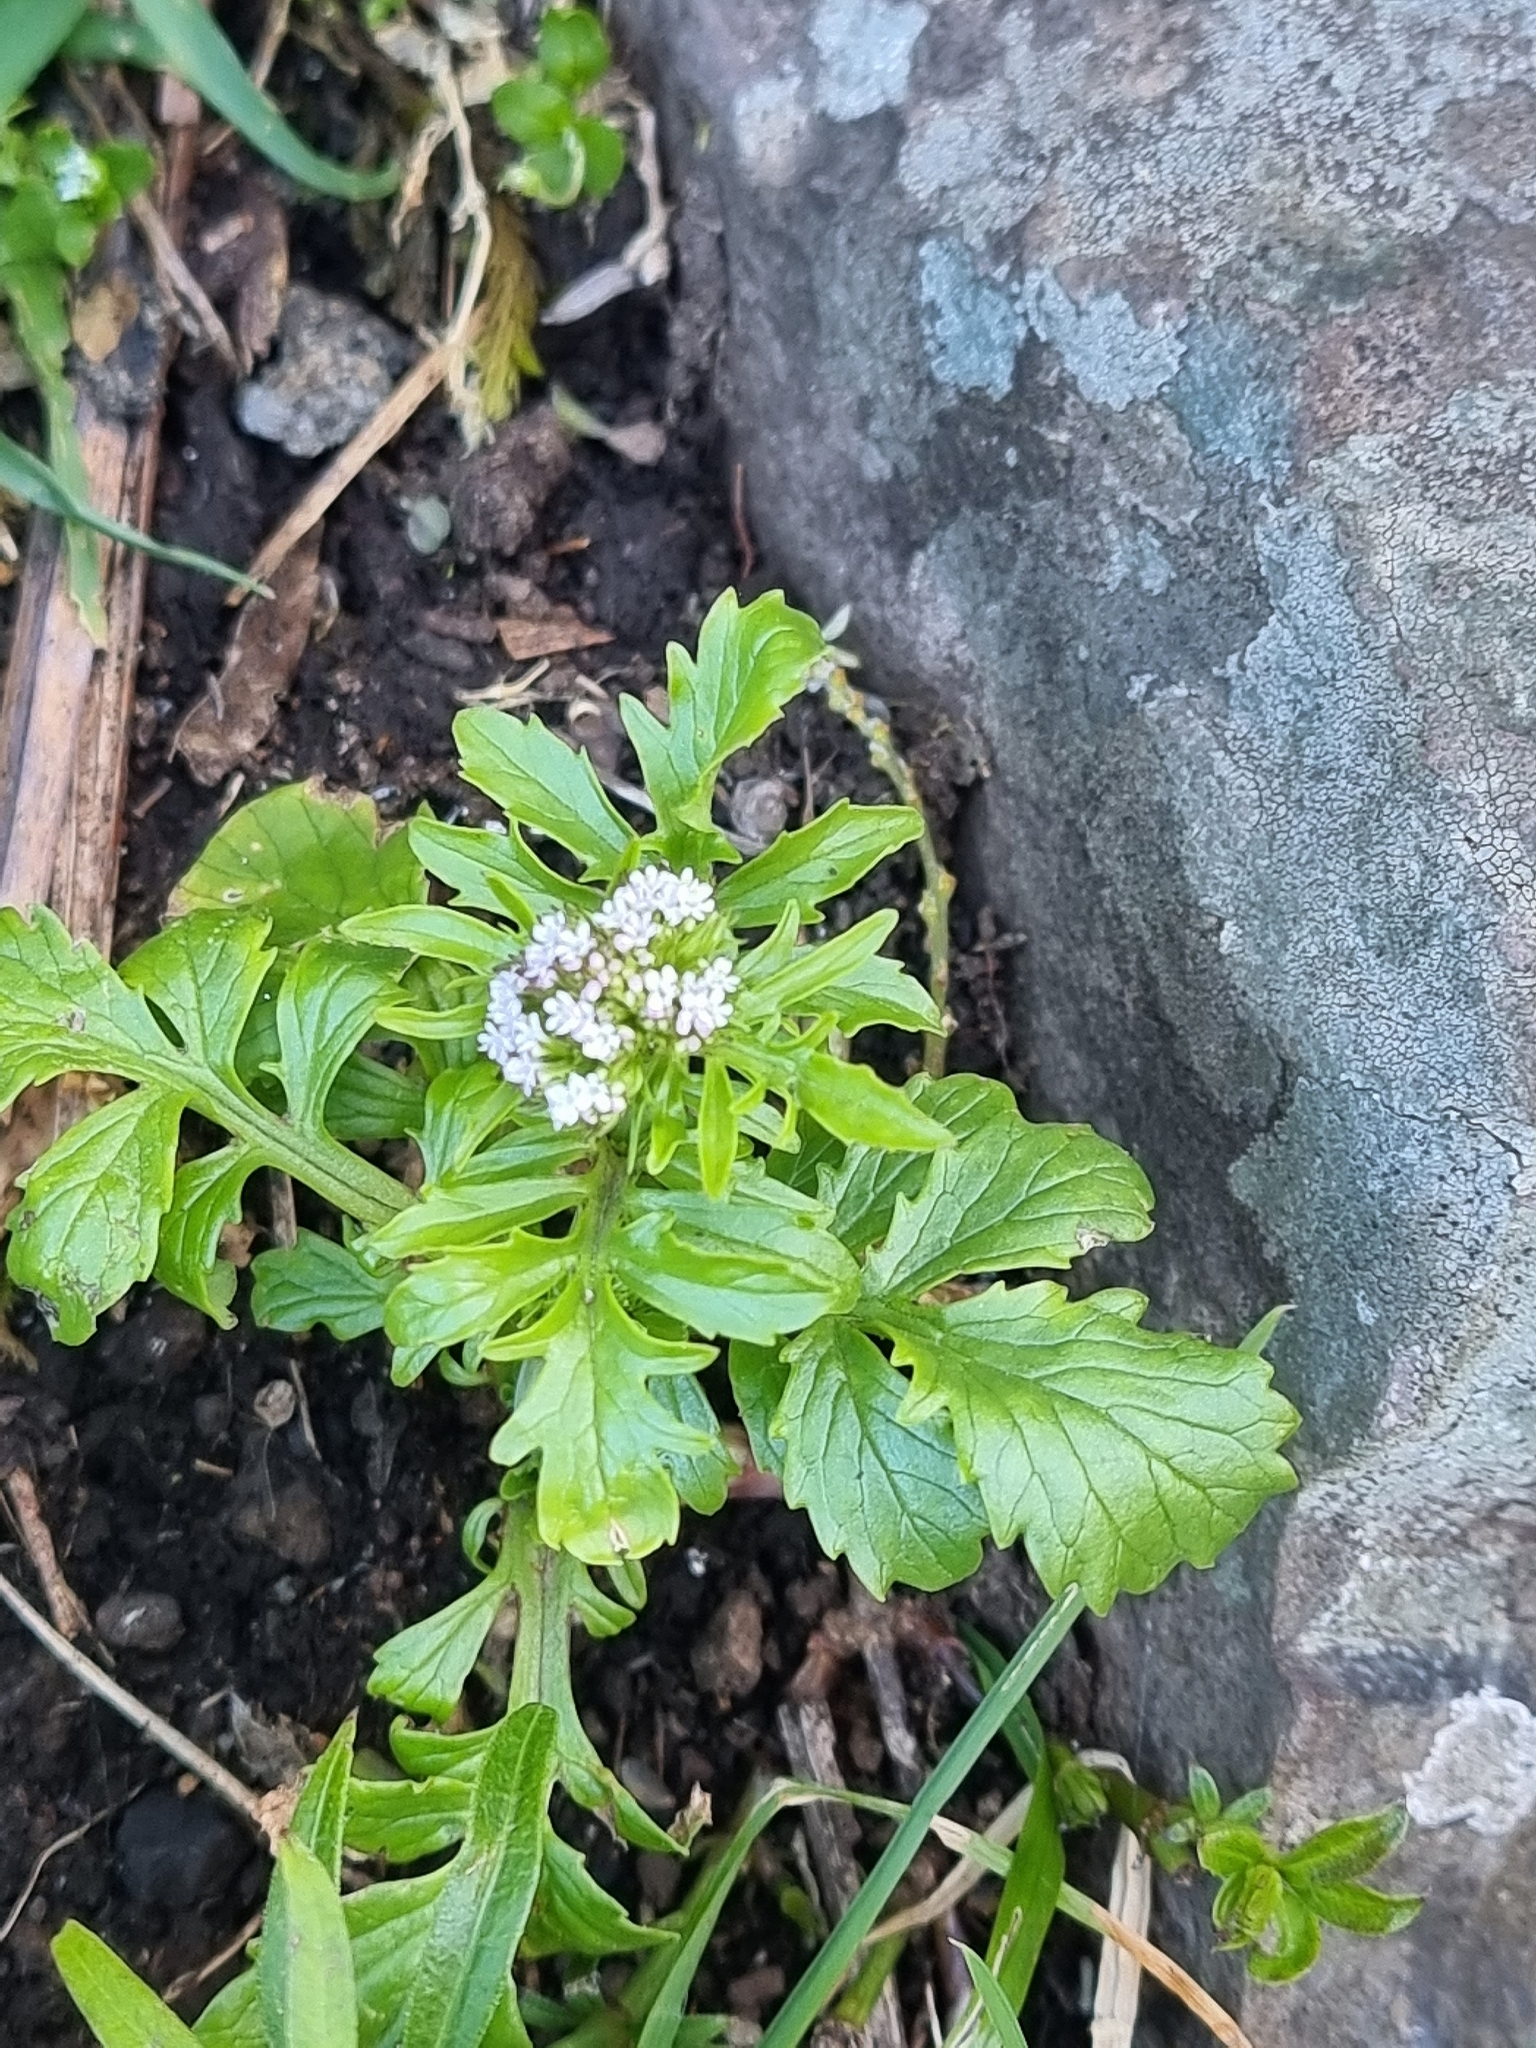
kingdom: Plantae
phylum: Tracheophyta
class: Magnoliopsida
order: Dipsacales
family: Caprifoliaceae
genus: Centranthus
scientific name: Centranthus calcitrapae
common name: Annual valerian
